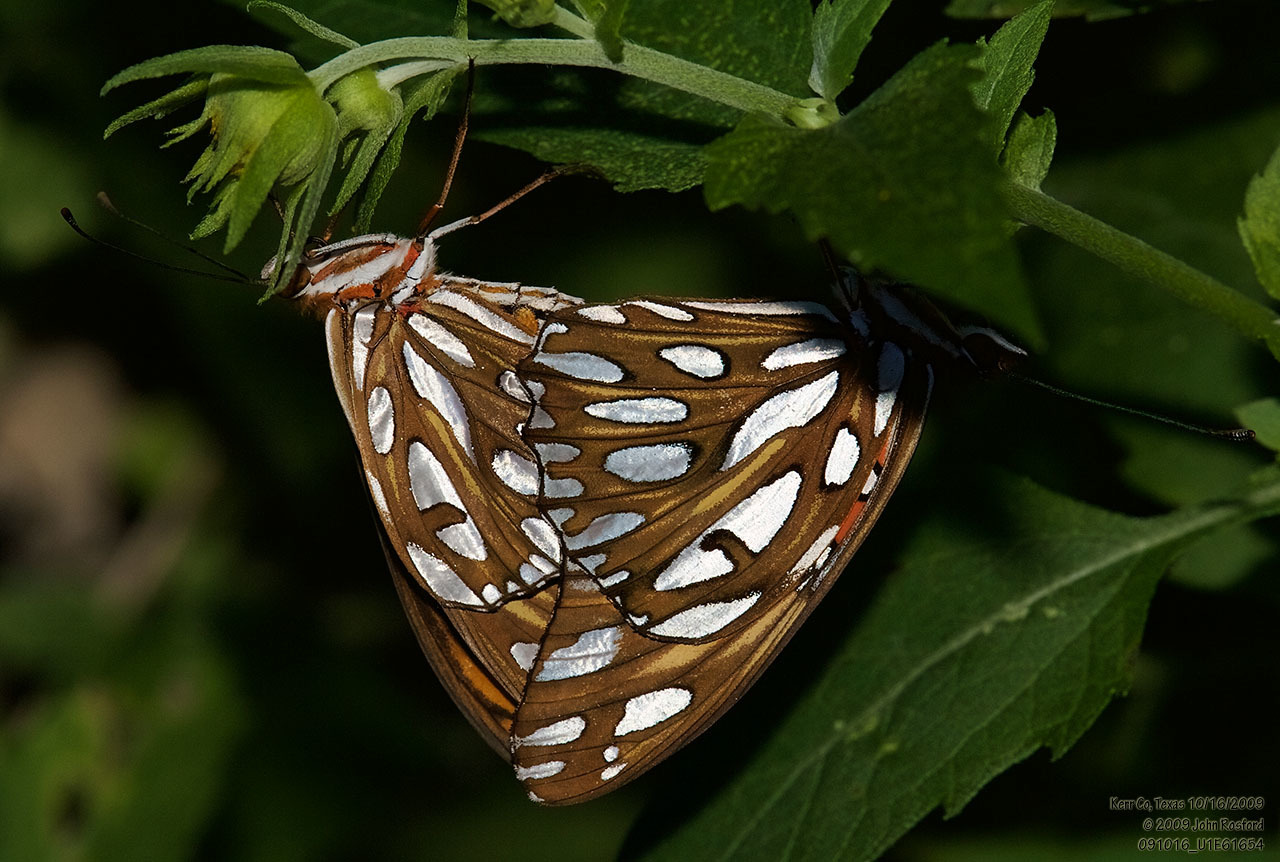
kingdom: Animalia
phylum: Arthropoda
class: Insecta
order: Lepidoptera
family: Nymphalidae
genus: Dione
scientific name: Dione vanillae
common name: Gulf fritillary
